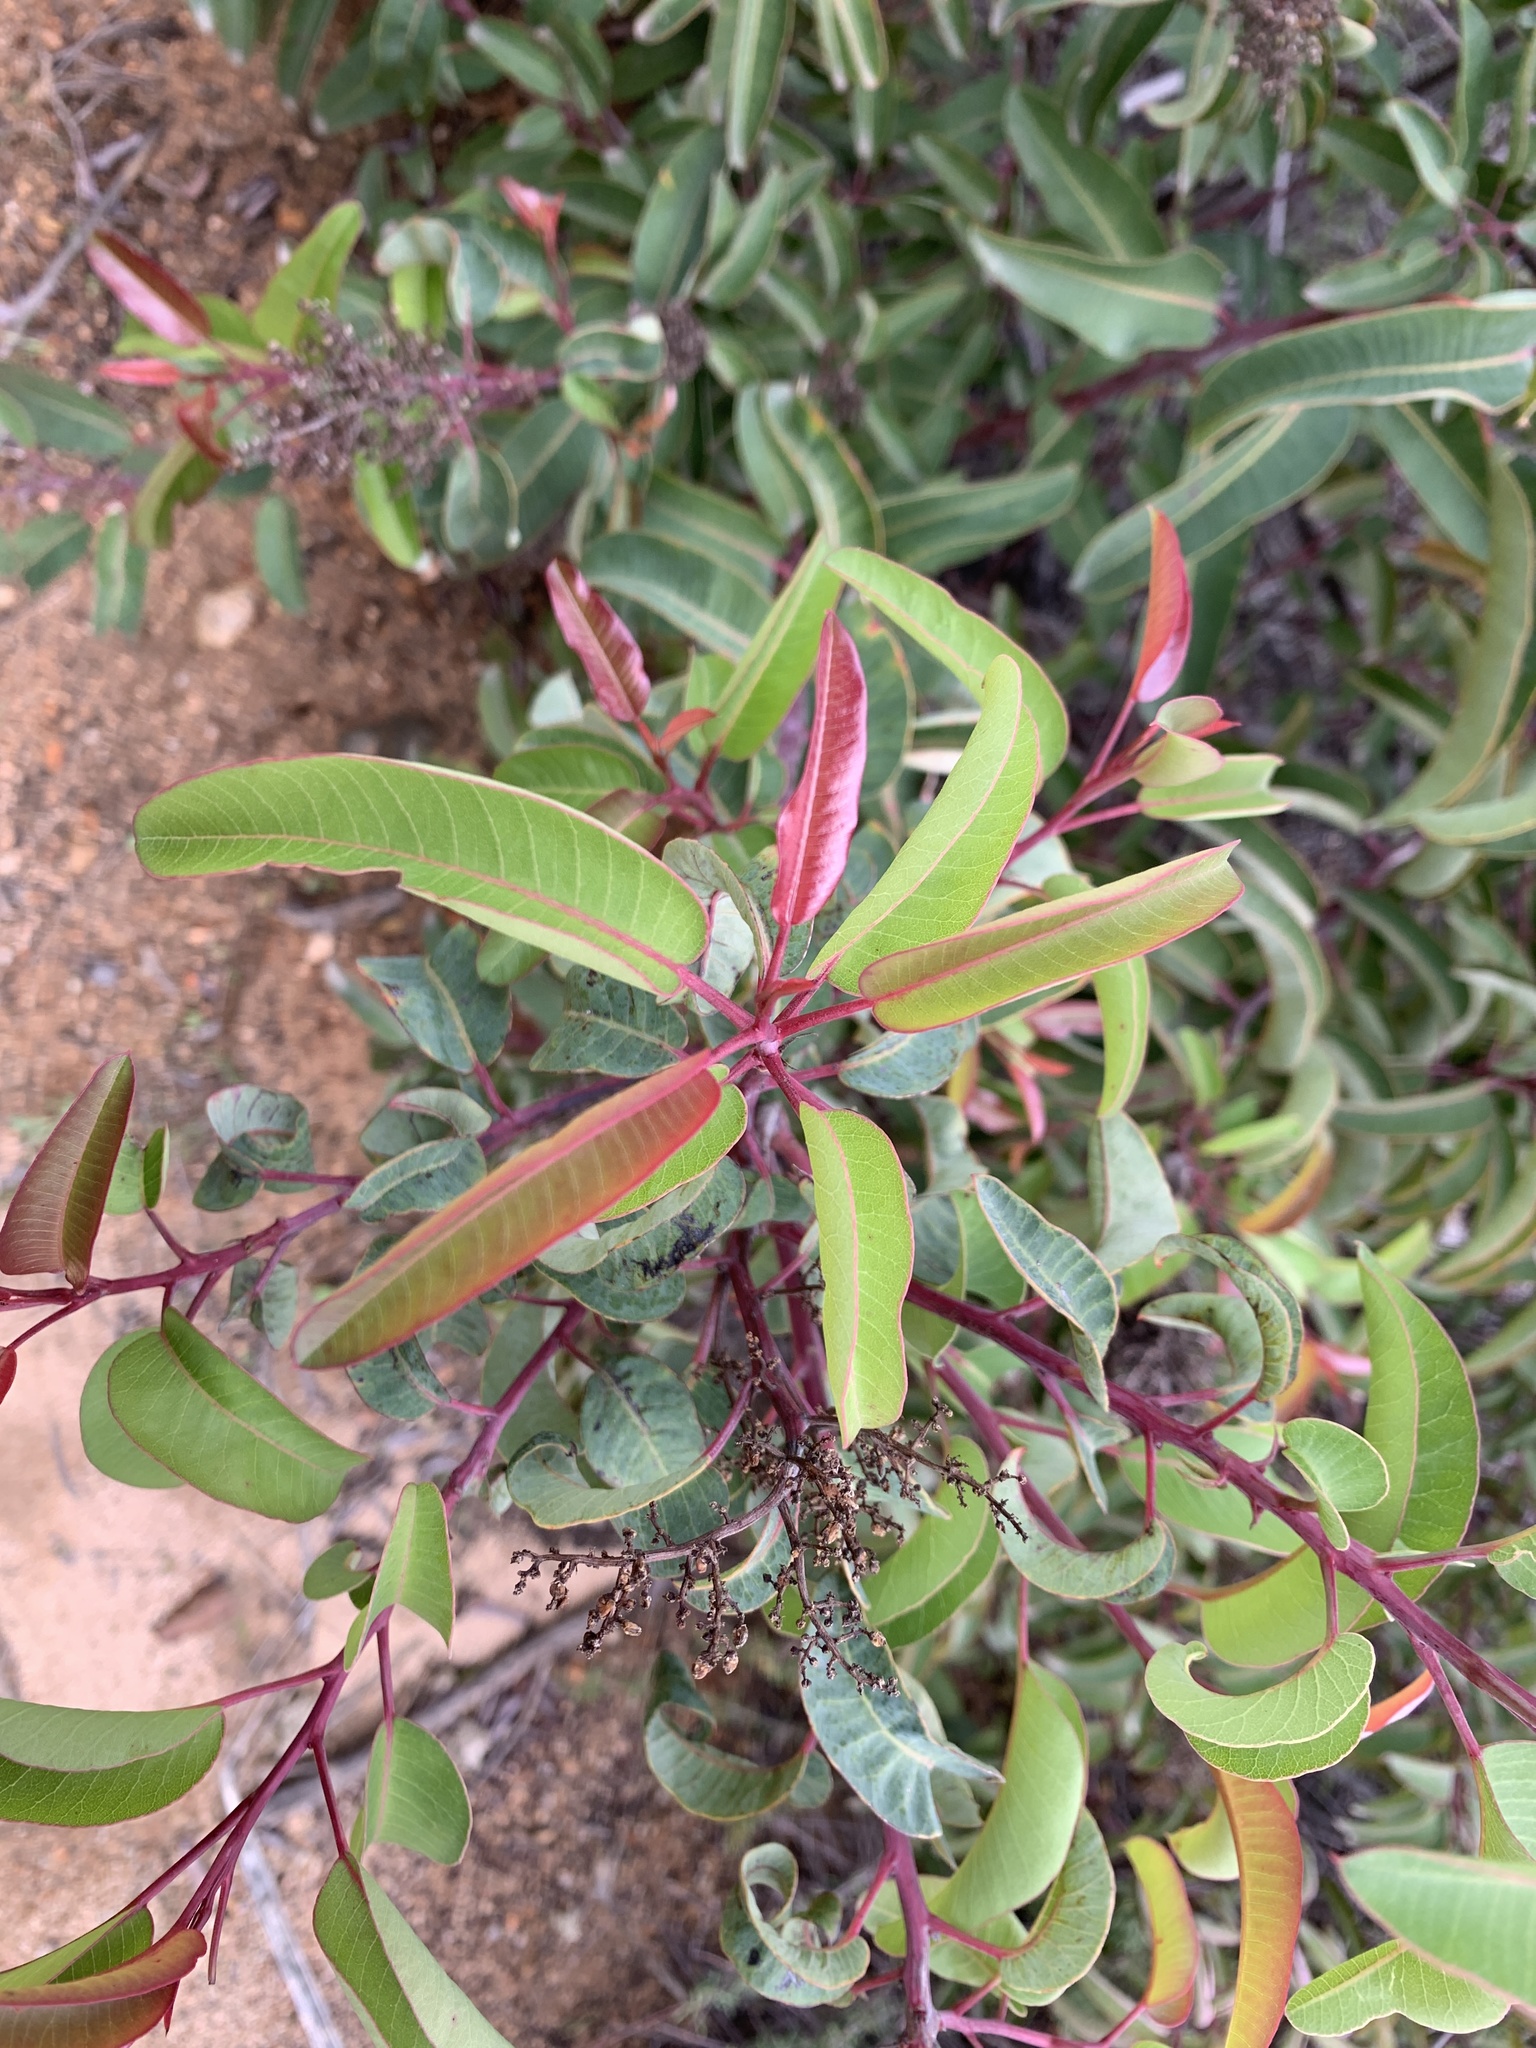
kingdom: Plantae
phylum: Tracheophyta
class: Magnoliopsida
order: Sapindales
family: Anacardiaceae
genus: Malosma
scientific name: Malosma laurina
